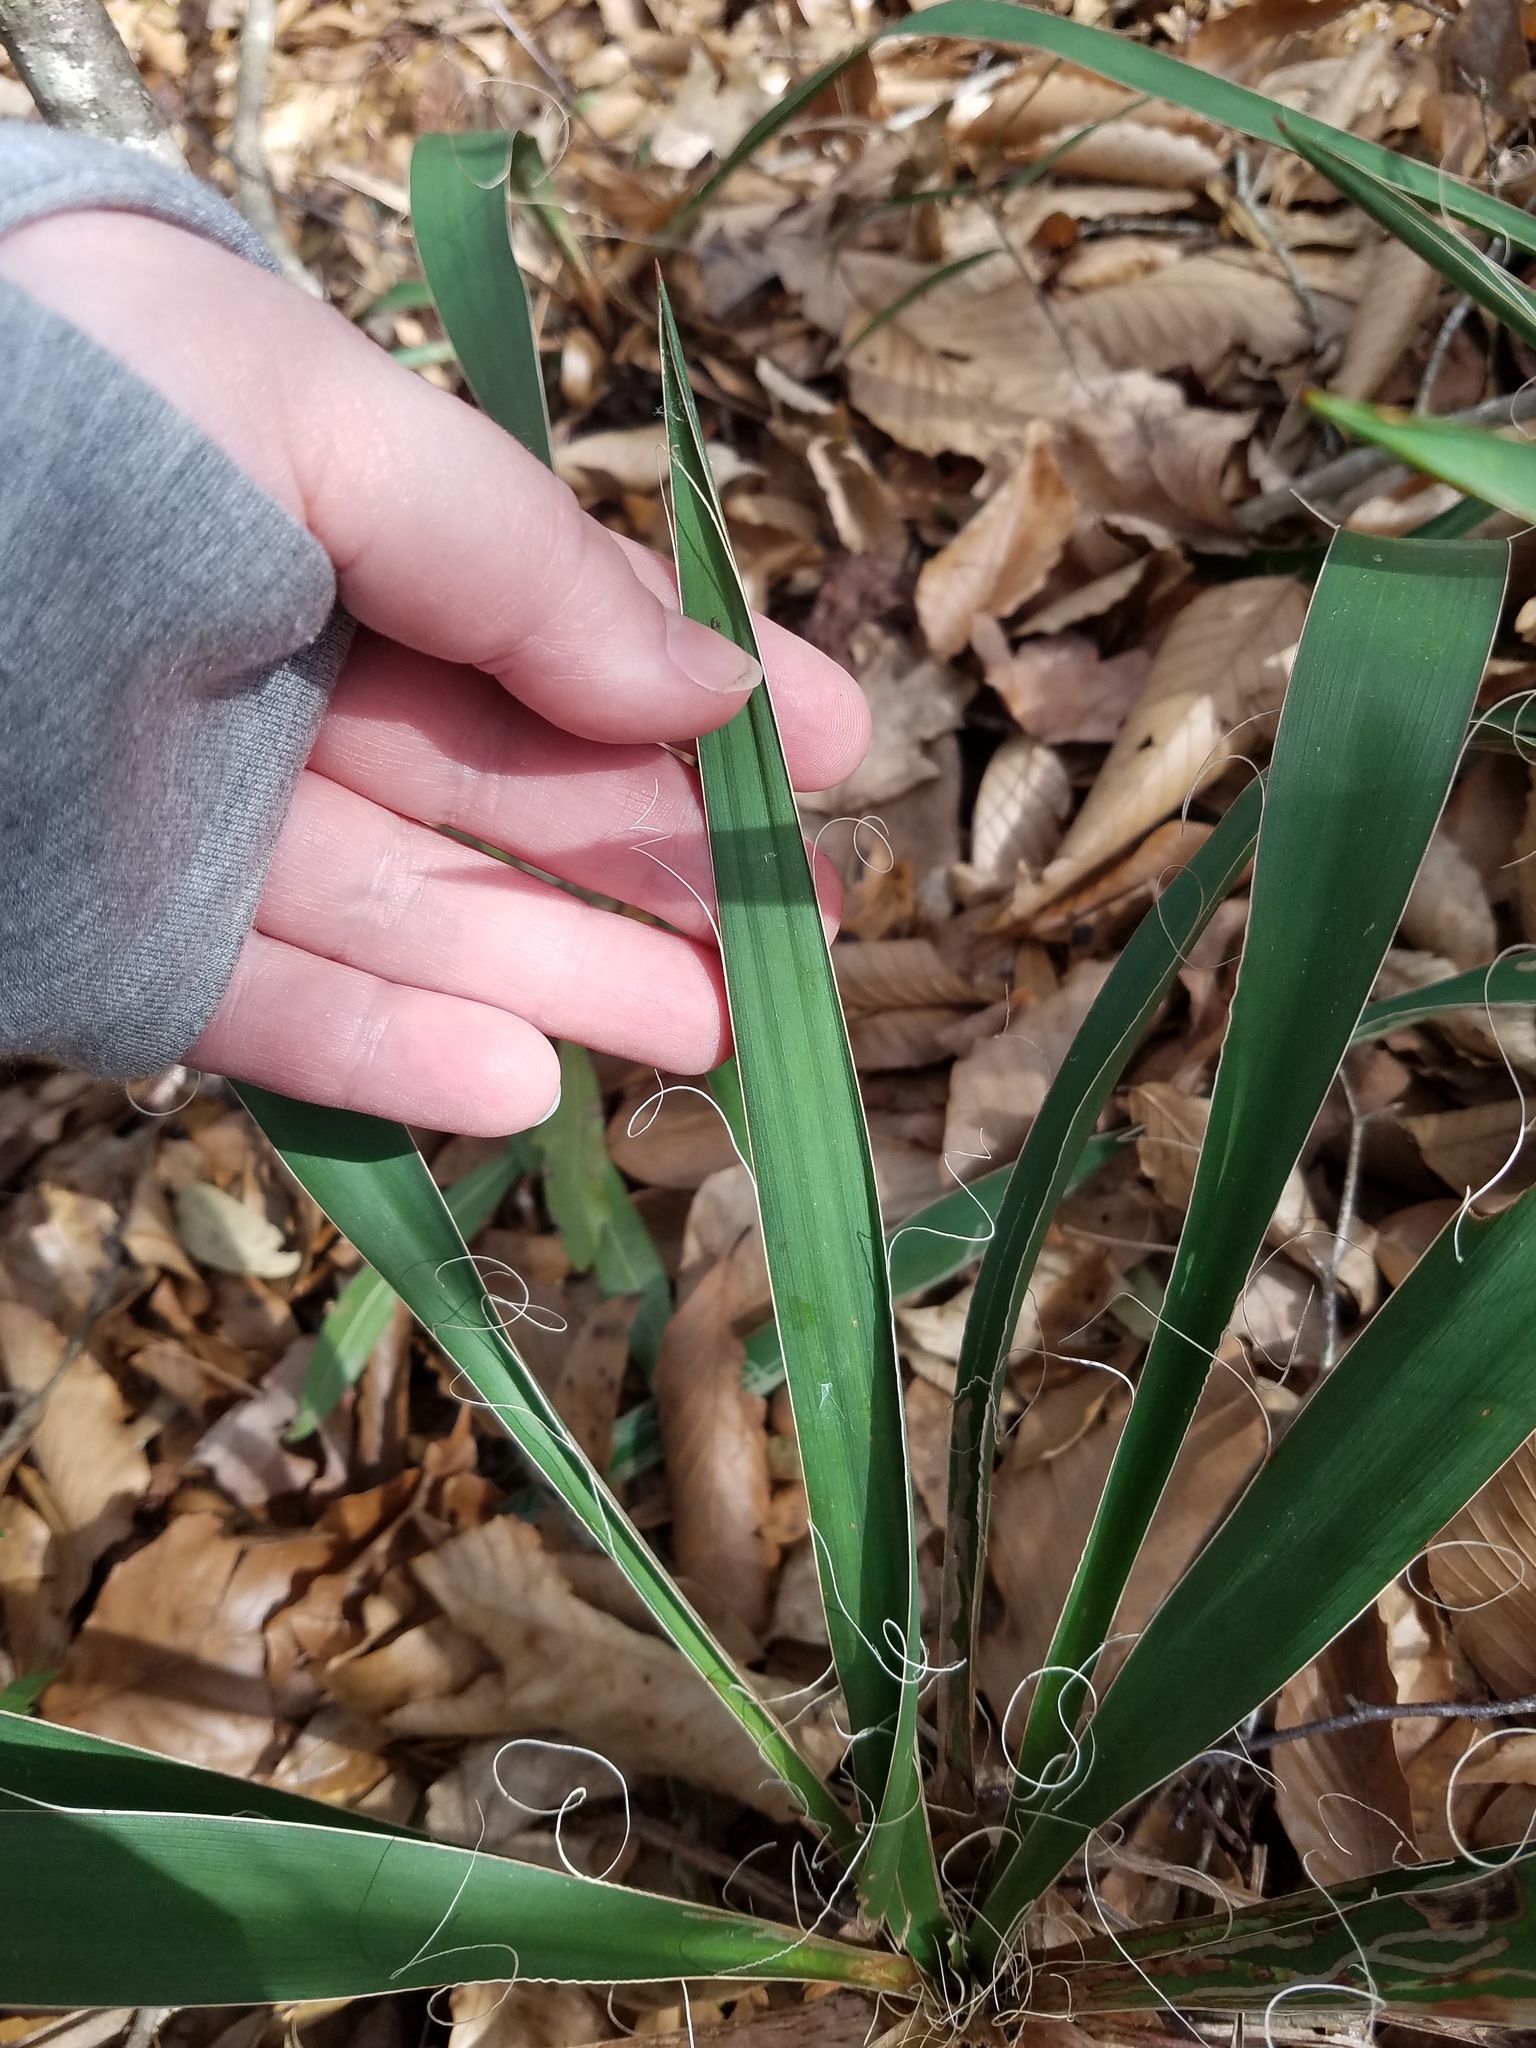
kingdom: Plantae
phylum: Tracheophyta
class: Liliopsida
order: Asparagales
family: Asparagaceae
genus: Yucca
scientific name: Yucca filamentosa
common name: Adam's-needle
